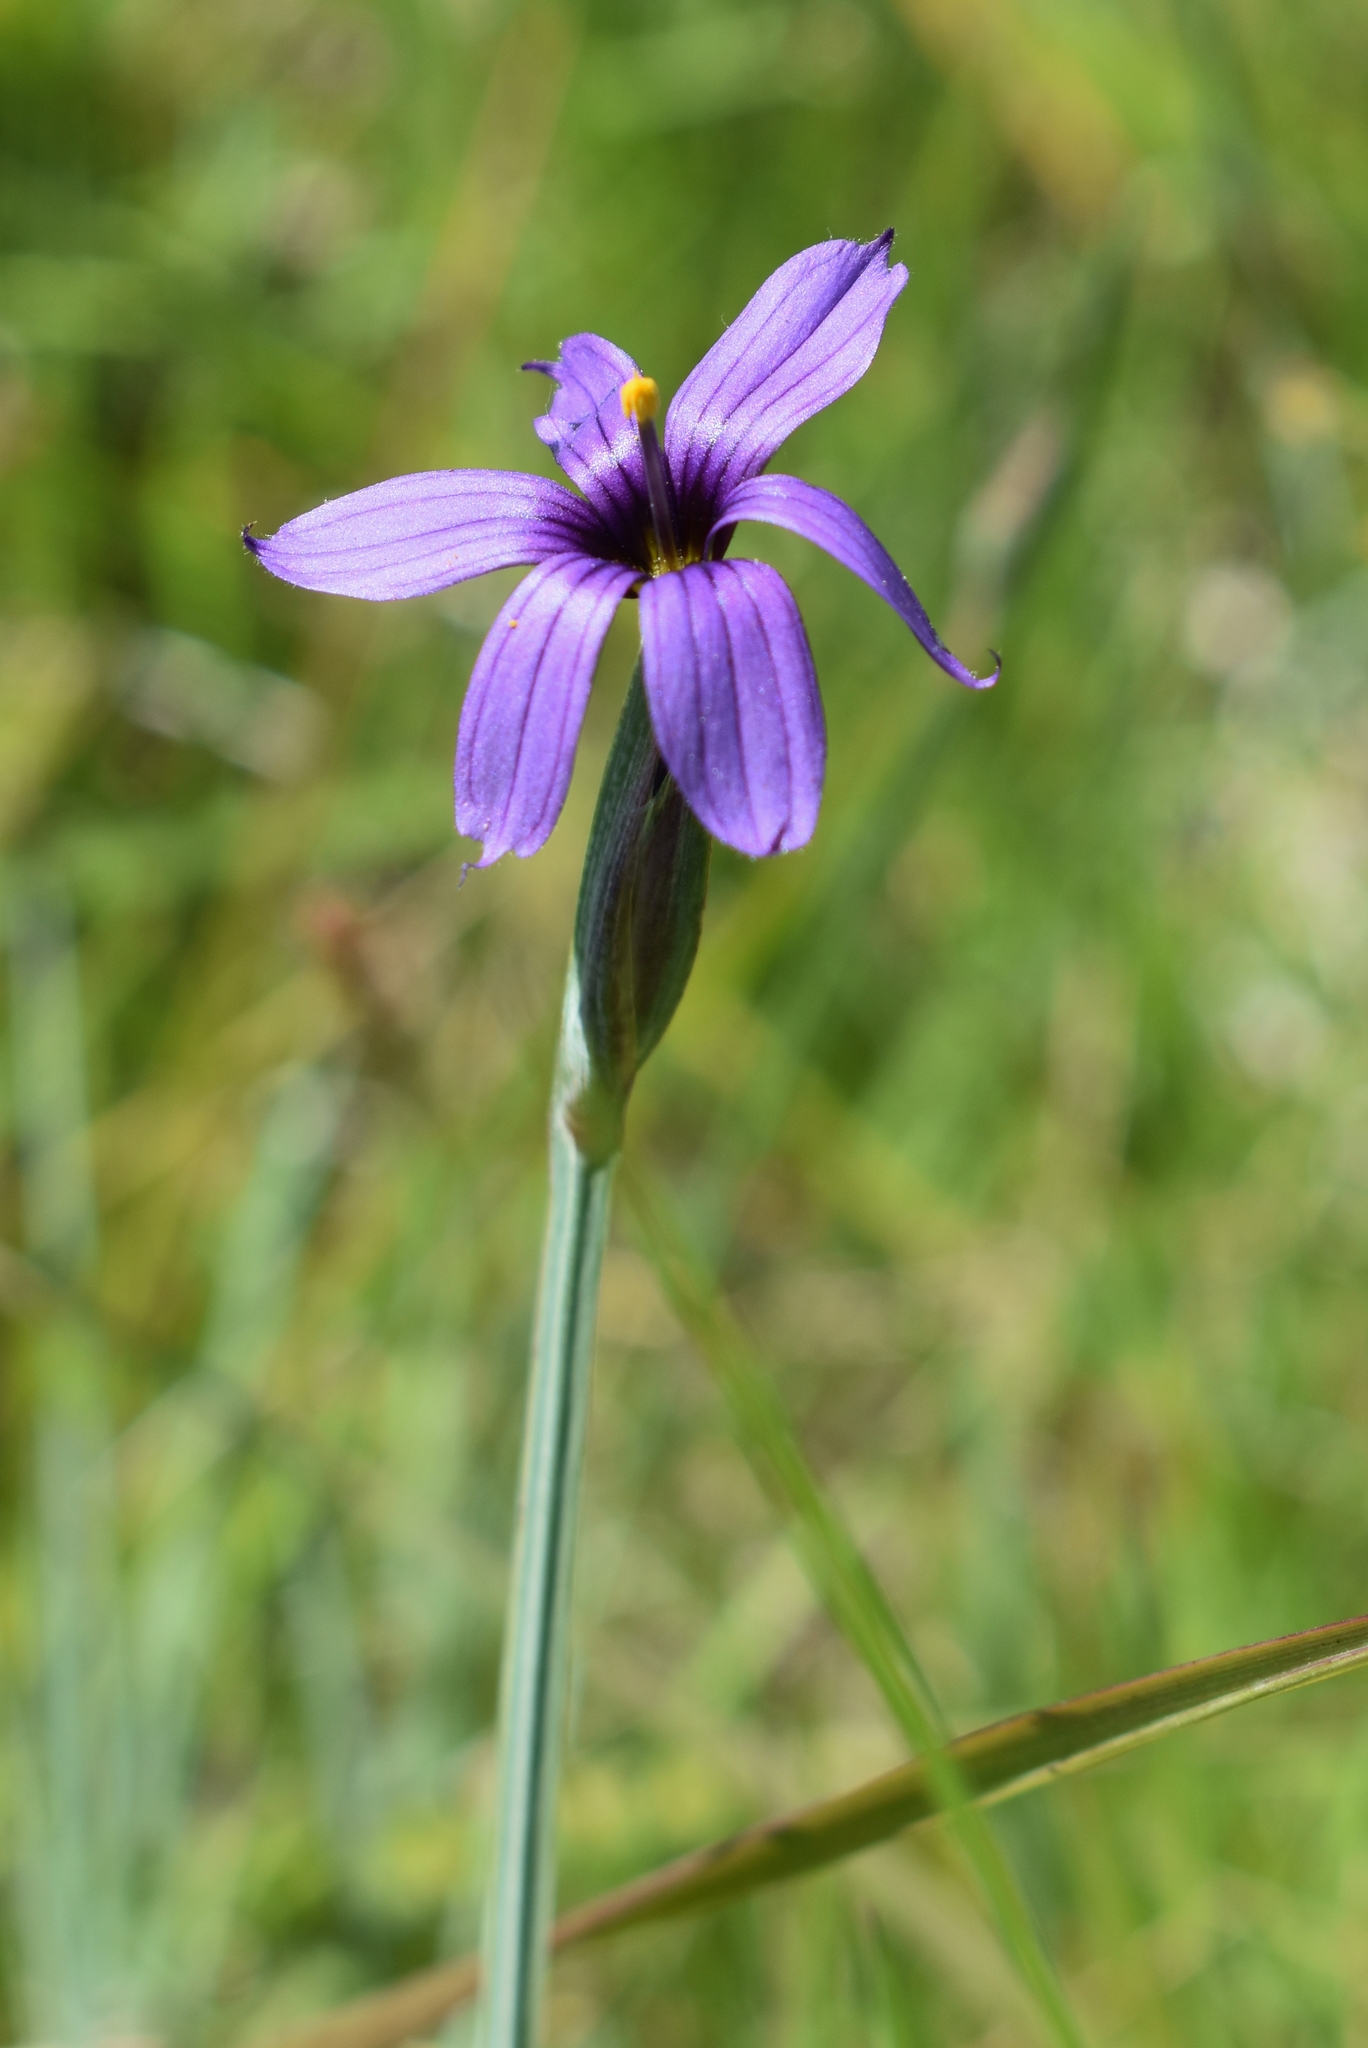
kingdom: Plantae
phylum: Tracheophyta
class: Liliopsida
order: Asparagales
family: Iridaceae
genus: Sisyrinchium
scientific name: Sisyrinchium hitchcockii
